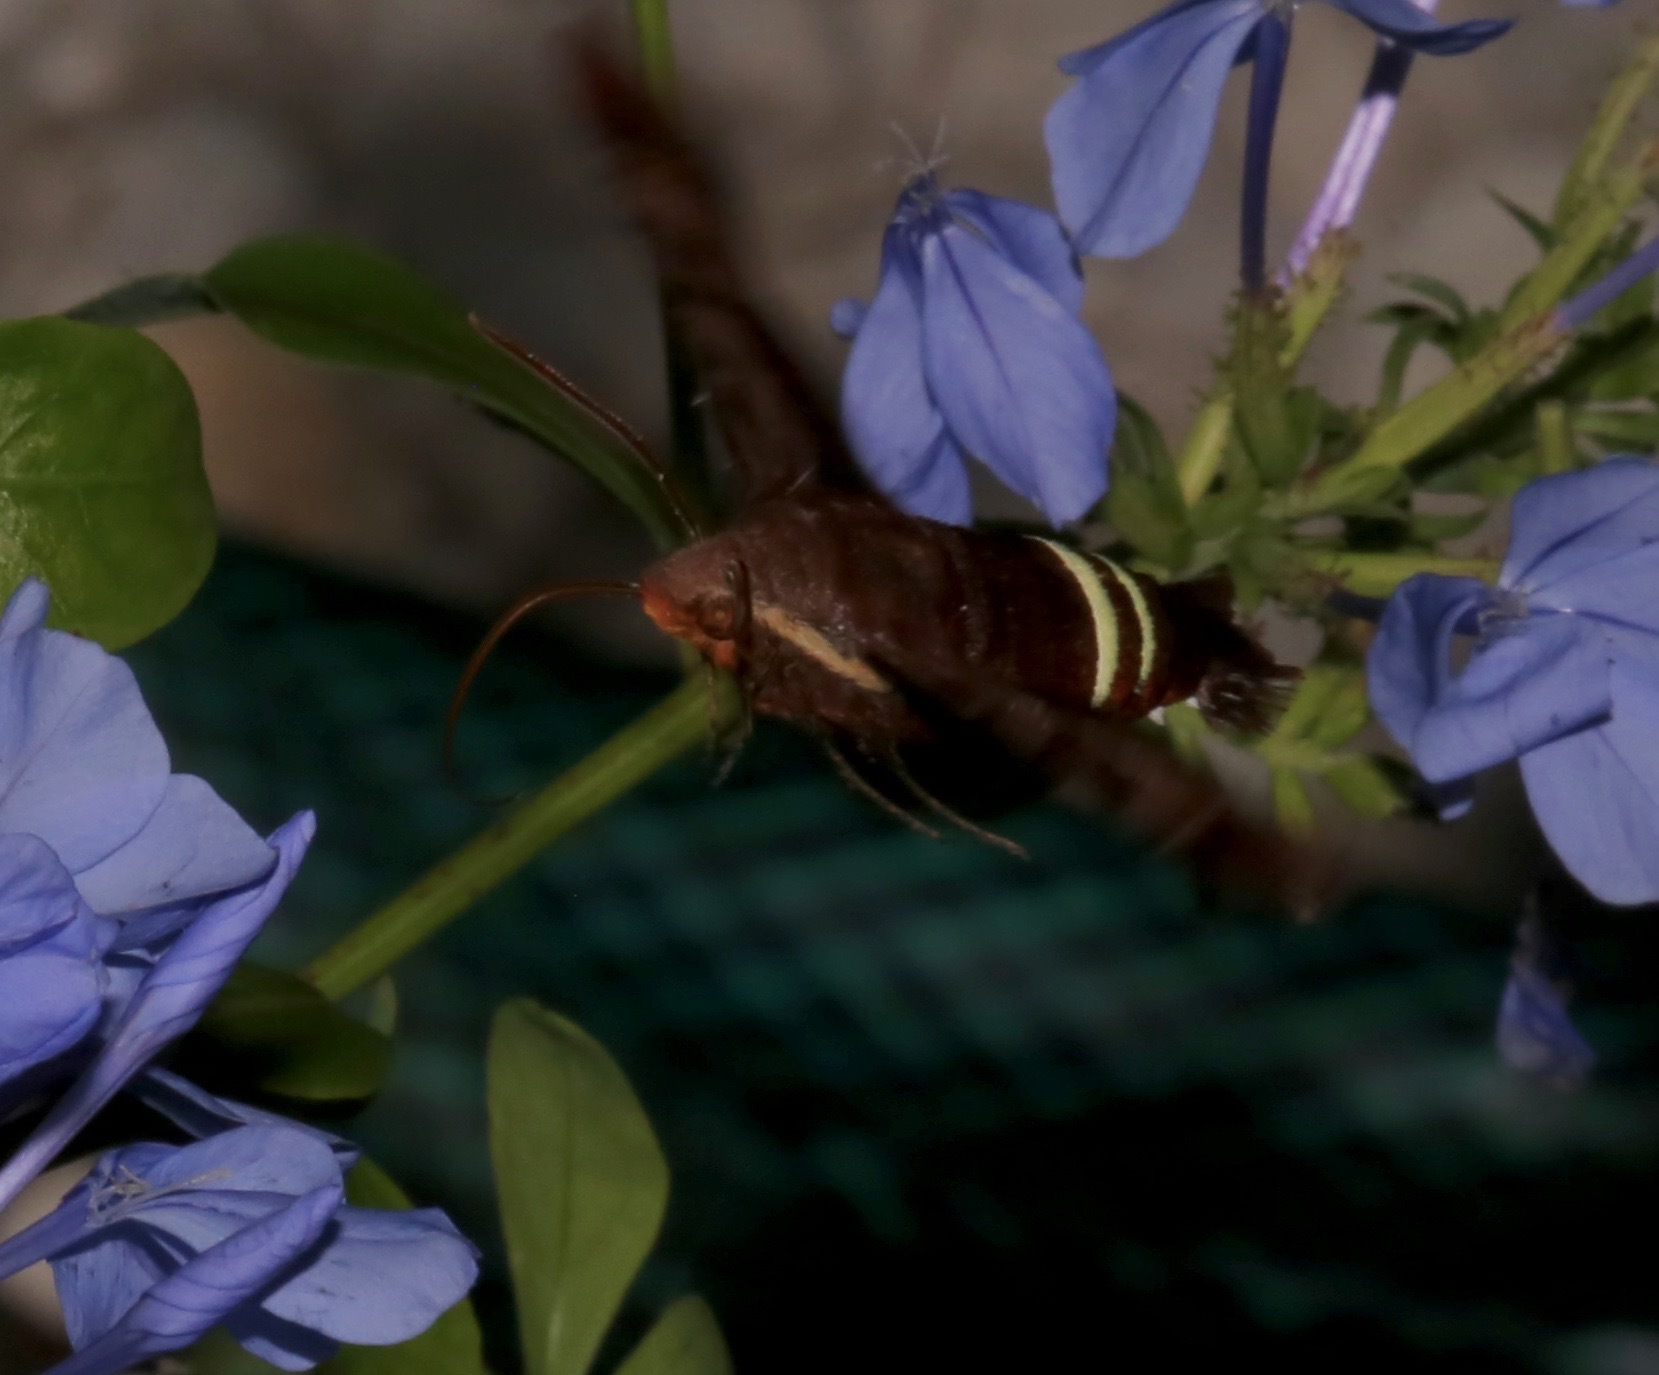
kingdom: Animalia
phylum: Arthropoda
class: Insecta
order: Lepidoptera
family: Sphingidae
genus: Amphion
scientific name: Amphion floridensis
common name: Nessus sphinx
